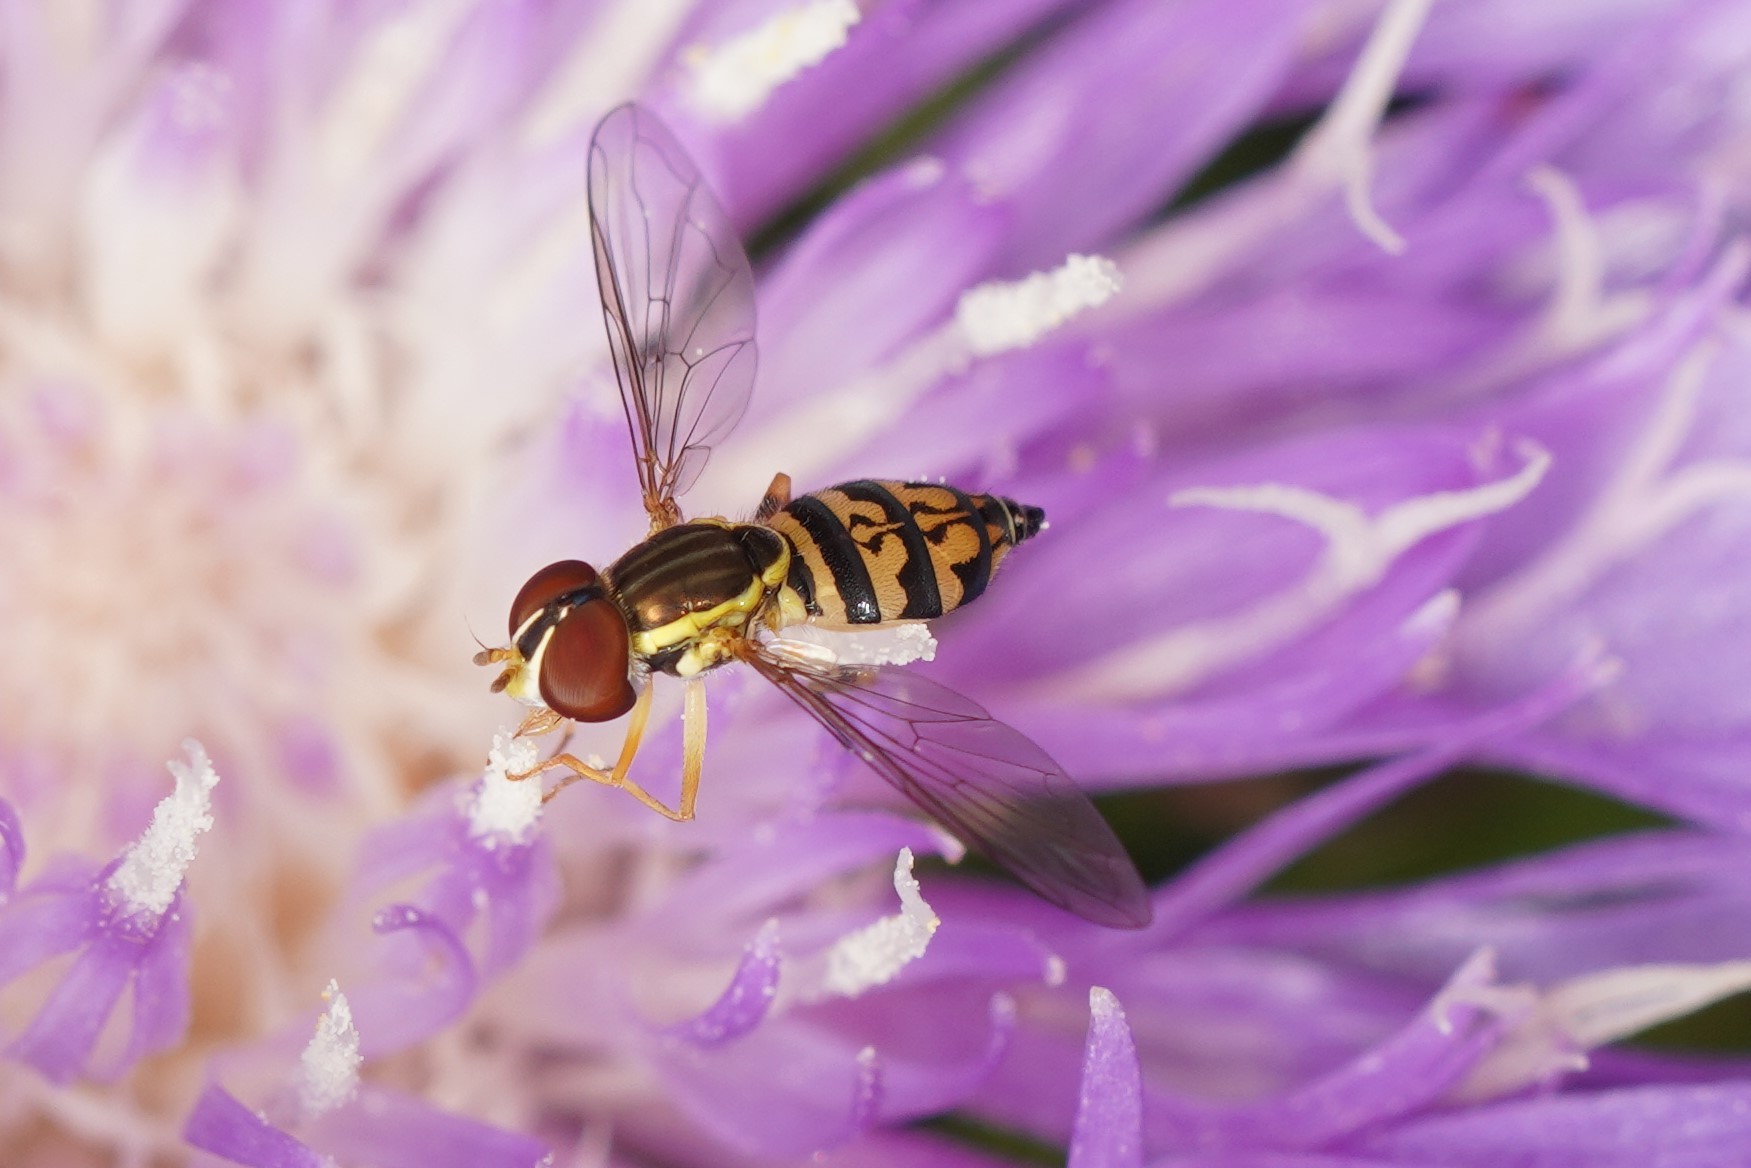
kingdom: Animalia
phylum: Arthropoda
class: Insecta
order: Diptera
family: Syrphidae
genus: Toxomerus
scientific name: Toxomerus geminatus
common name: Eastern calligrapher
